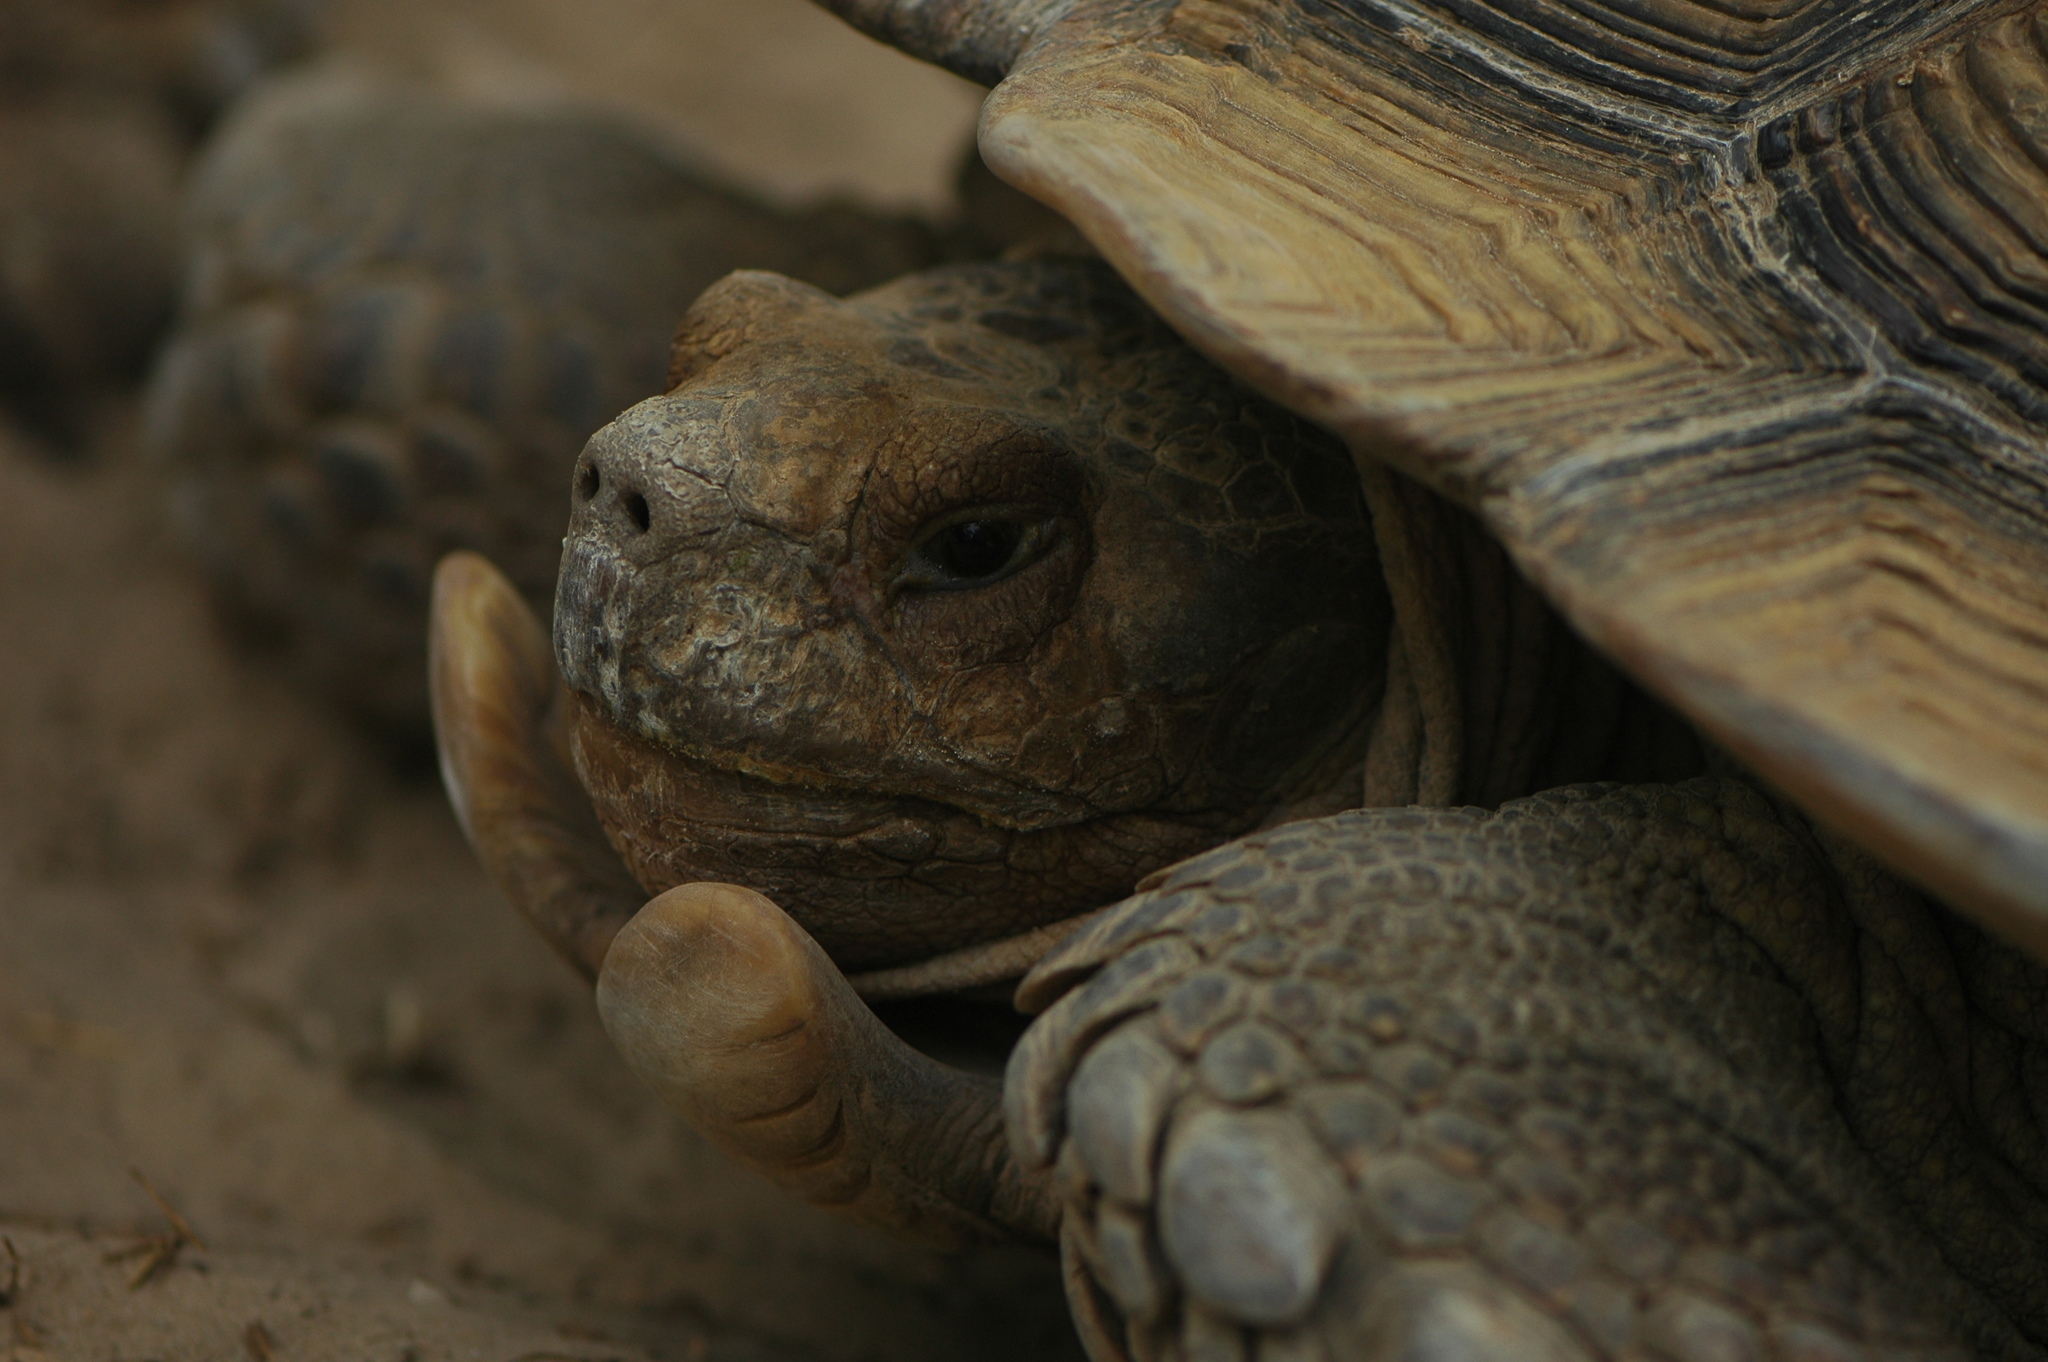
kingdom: Animalia
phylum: Chordata
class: Testudines
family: Testudinidae
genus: Centrochelys
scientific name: Centrochelys sulcata
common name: African spurred tortoise
